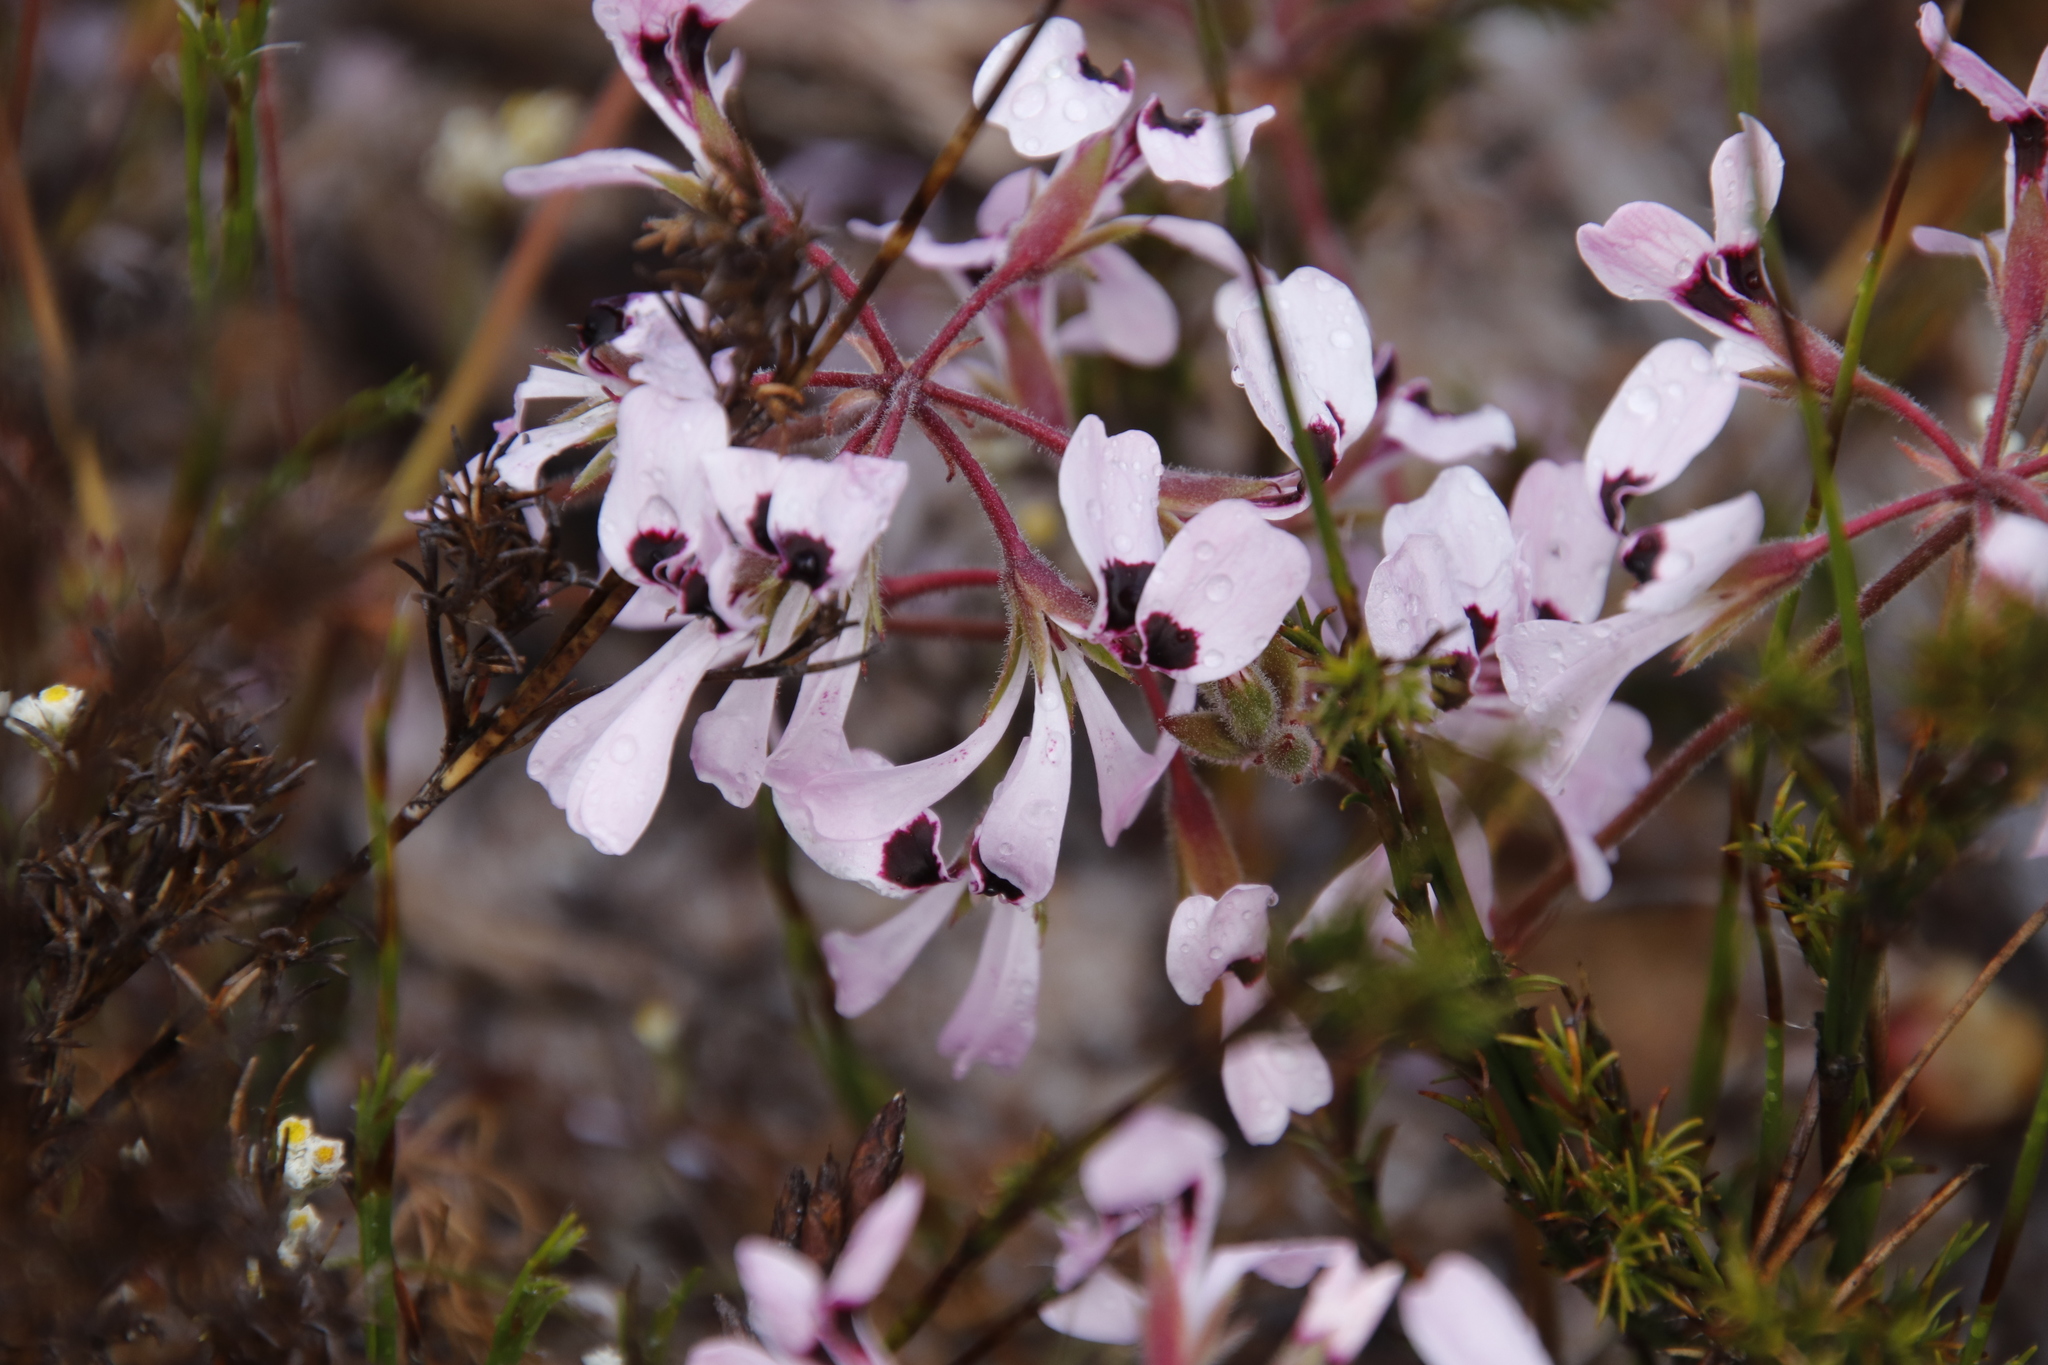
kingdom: Plantae
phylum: Tracheophyta
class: Magnoliopsida
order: Geraniales
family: Geraniaceae
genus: Pelargonium
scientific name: Pelargonium psammophilum
